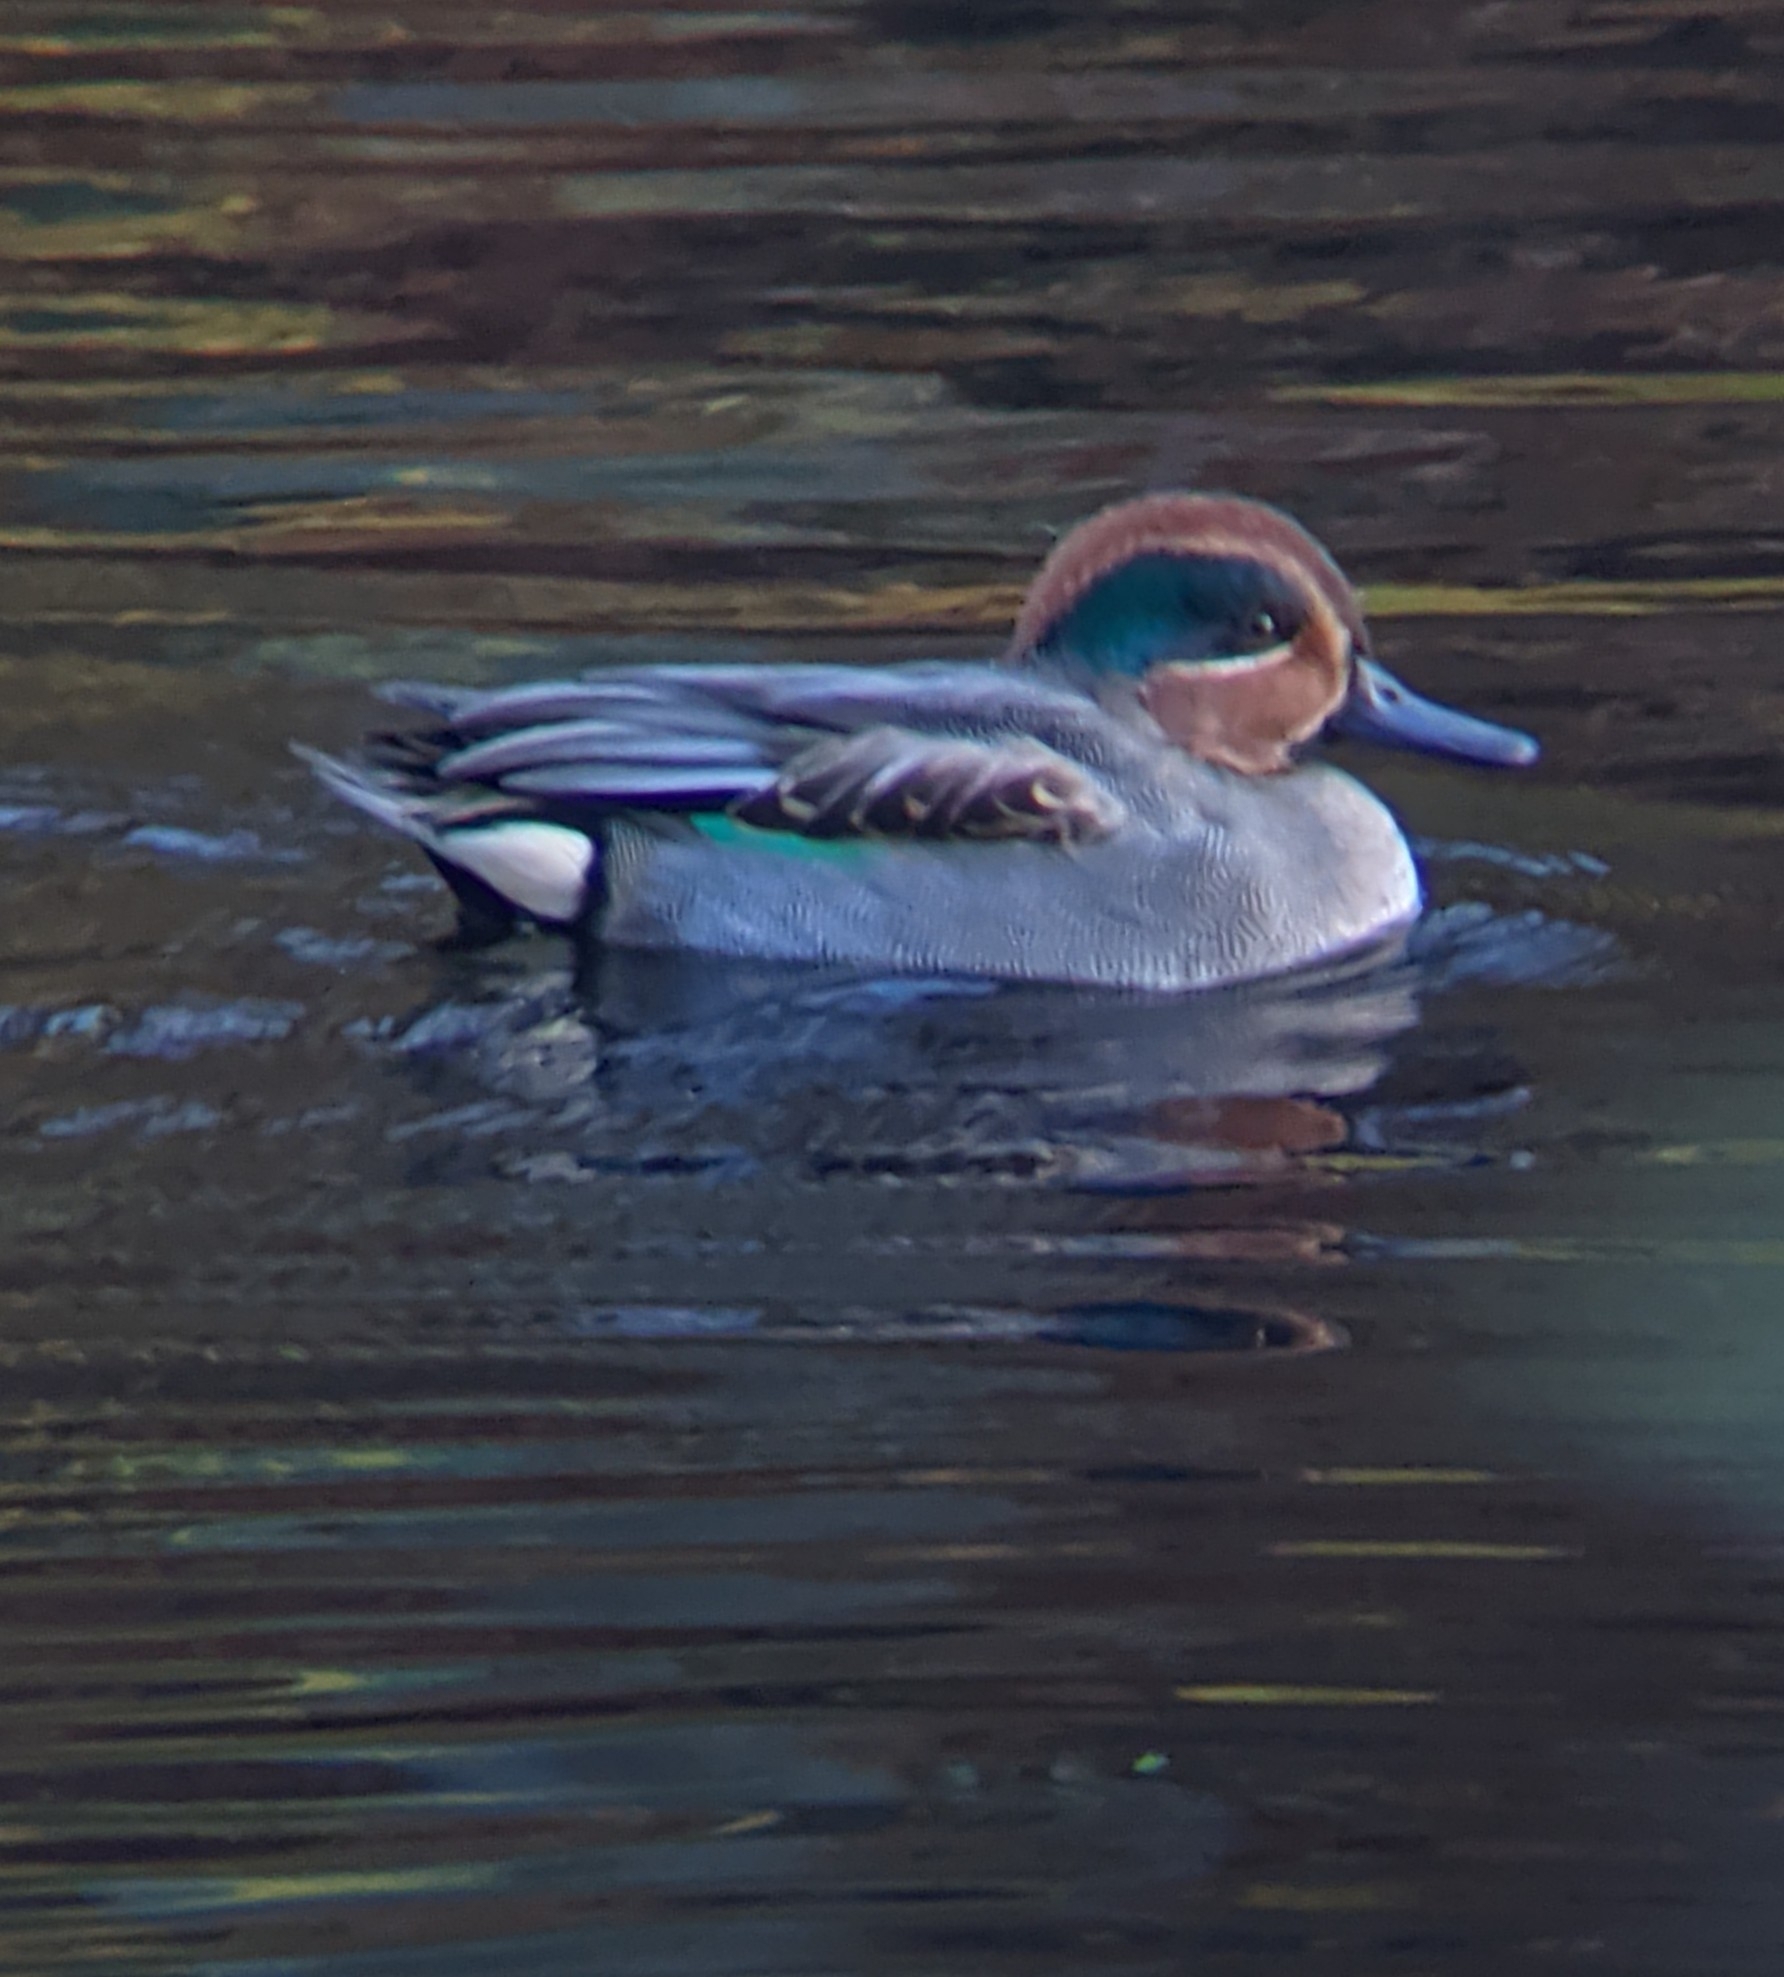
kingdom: Animalia
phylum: Chordata
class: Aves
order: Anseriformes
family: Anatidae
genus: Anas
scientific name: Anas crecca
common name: Eurasian teal
